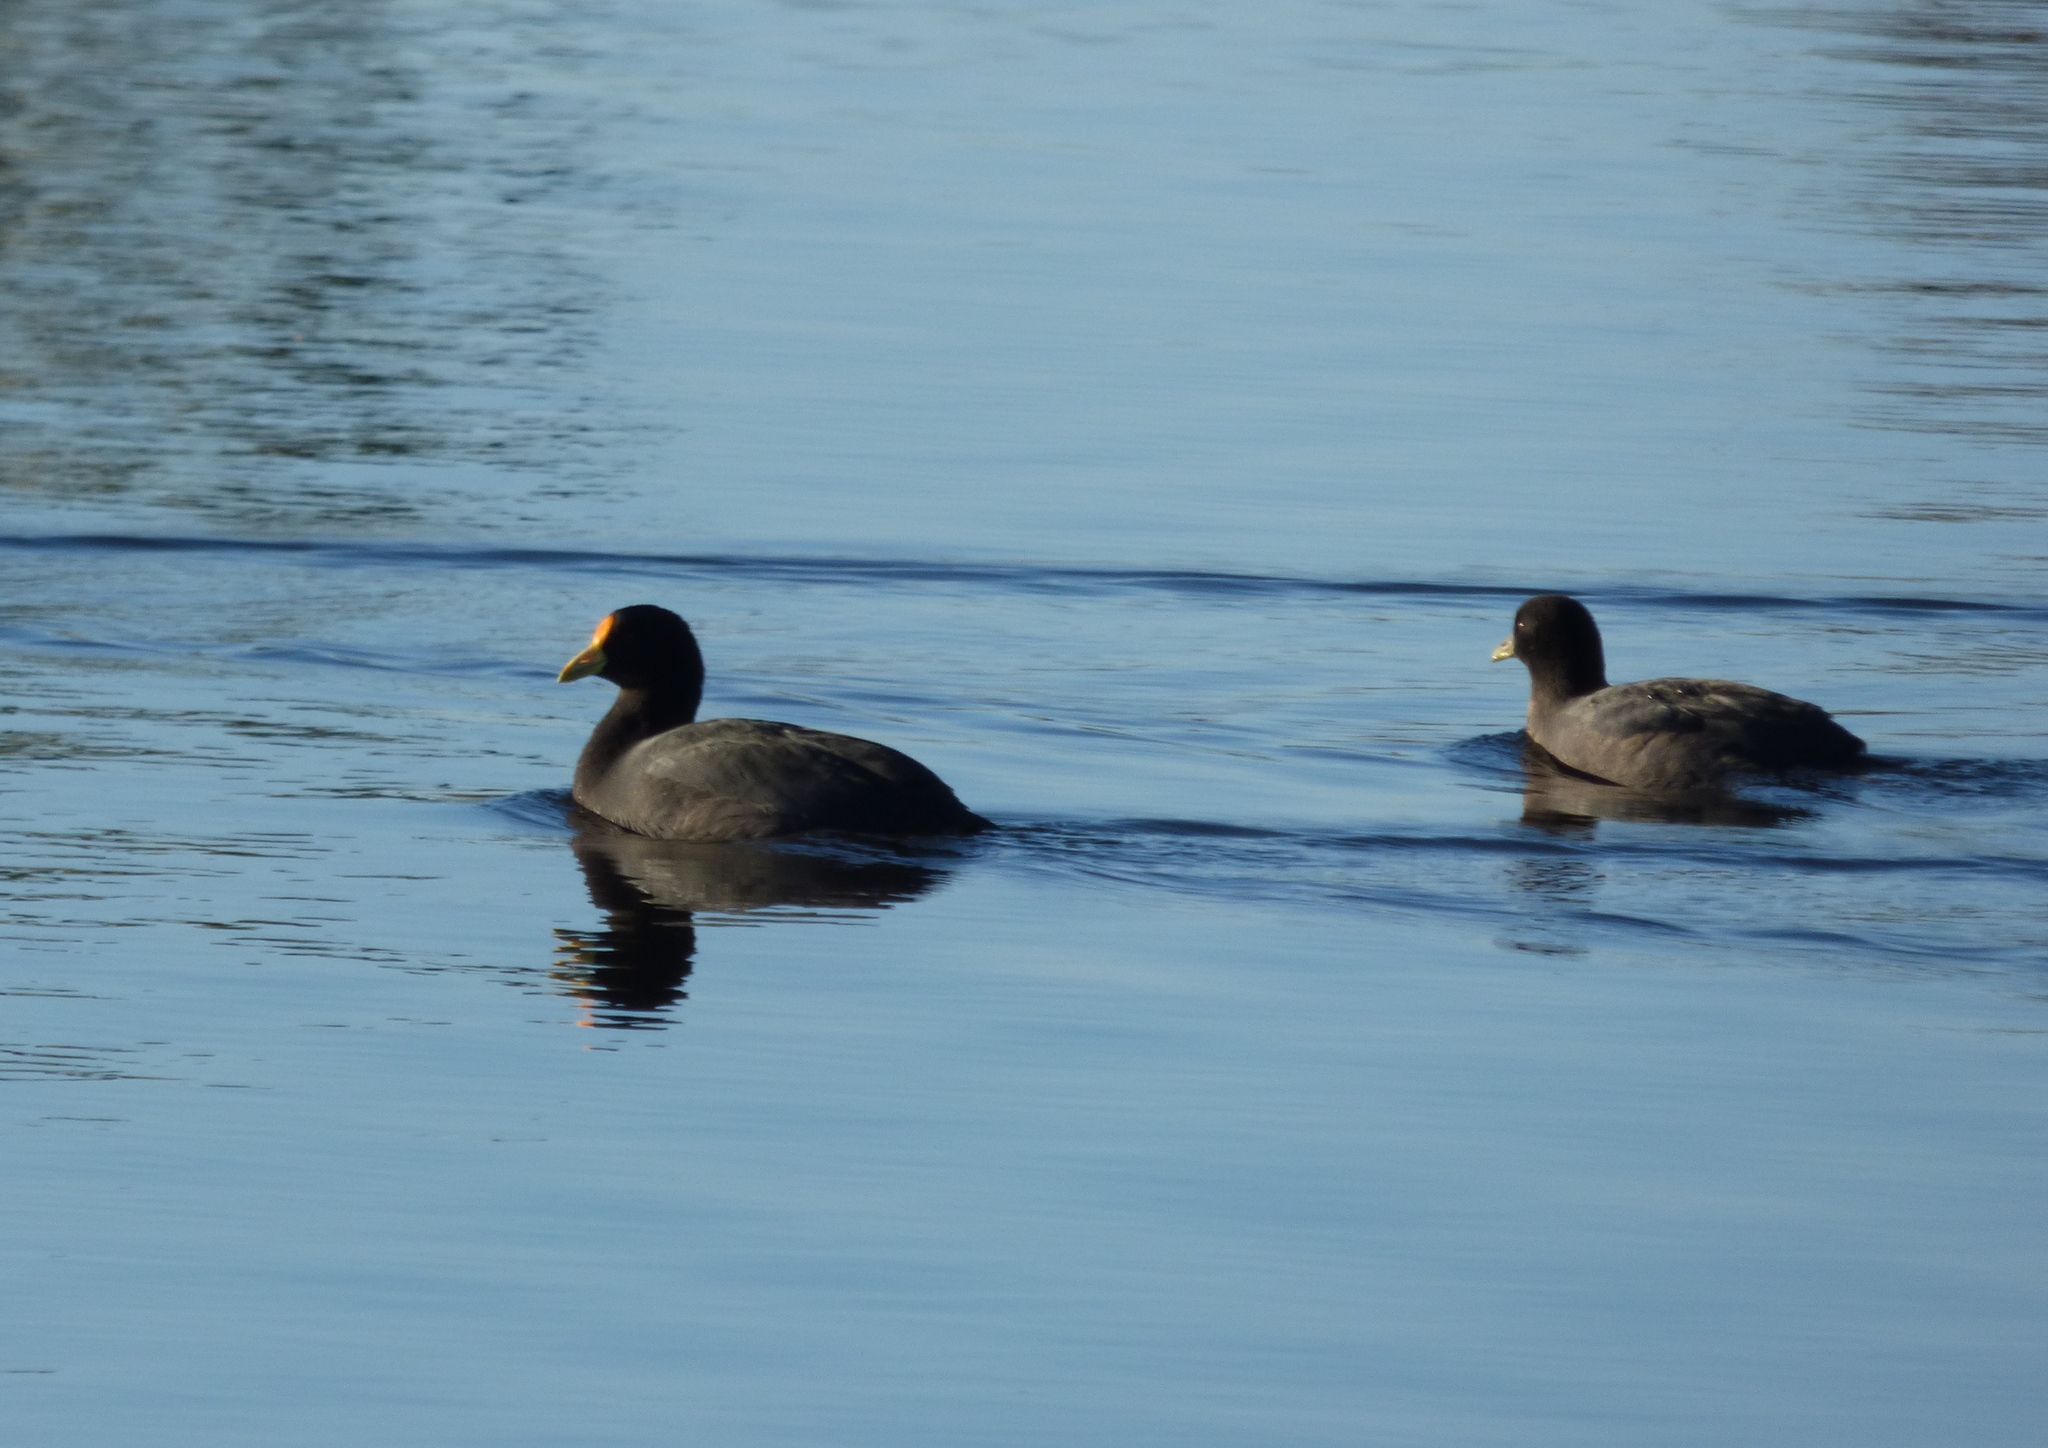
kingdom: Animalia
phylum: Chordata
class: Aves
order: Gruiformes
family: Rallidae
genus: Fulica
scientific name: Fulica leucoptera
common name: White-winged coot
